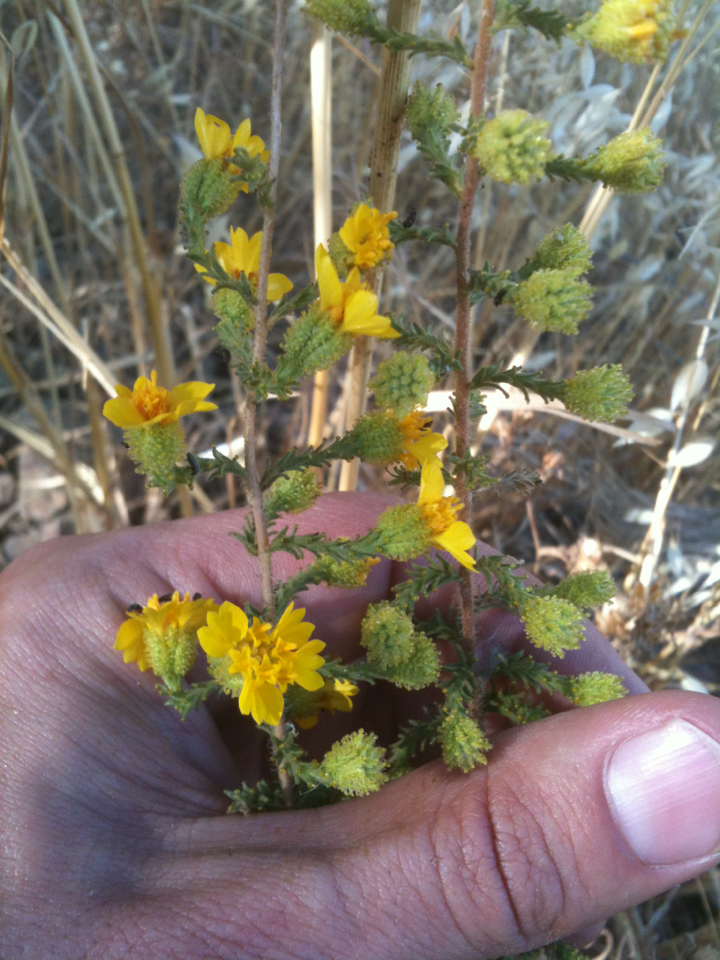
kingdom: Plantae
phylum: Tracheophyta
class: Magnoliopsida
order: Asterales
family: Asteraceae
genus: Holocarpha
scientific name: Holocarpha heermannii
